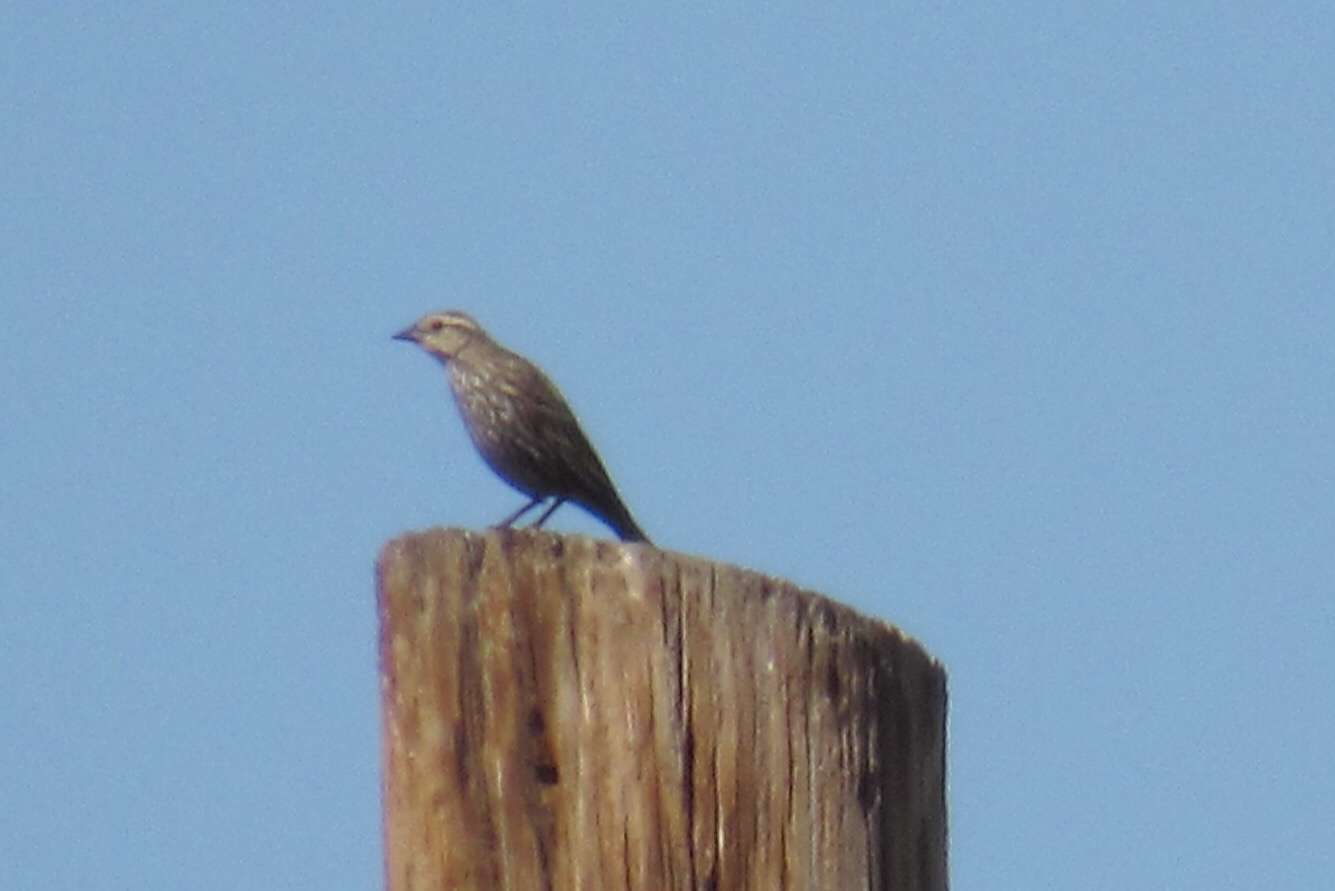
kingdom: Animalia
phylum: Chordata
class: Aves
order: Passeriformes
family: Icteridae
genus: Agelaius
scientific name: Agelaius phoeniceus
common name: Red-winged blackbird
